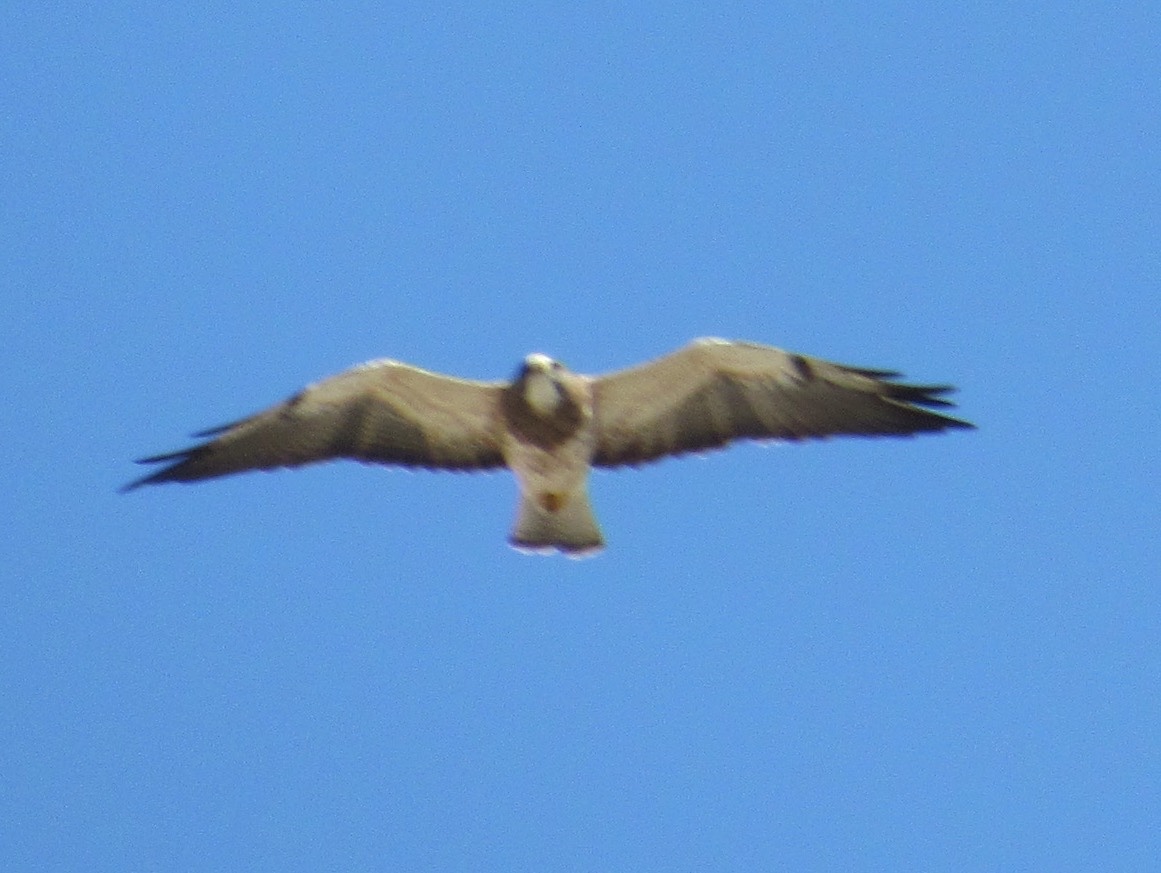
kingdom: Animalia
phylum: Chordata
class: Aves
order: Accipitriformes
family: Accipitridae
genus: Buteo
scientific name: Buteo swainsoni
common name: Swainson's hawk
